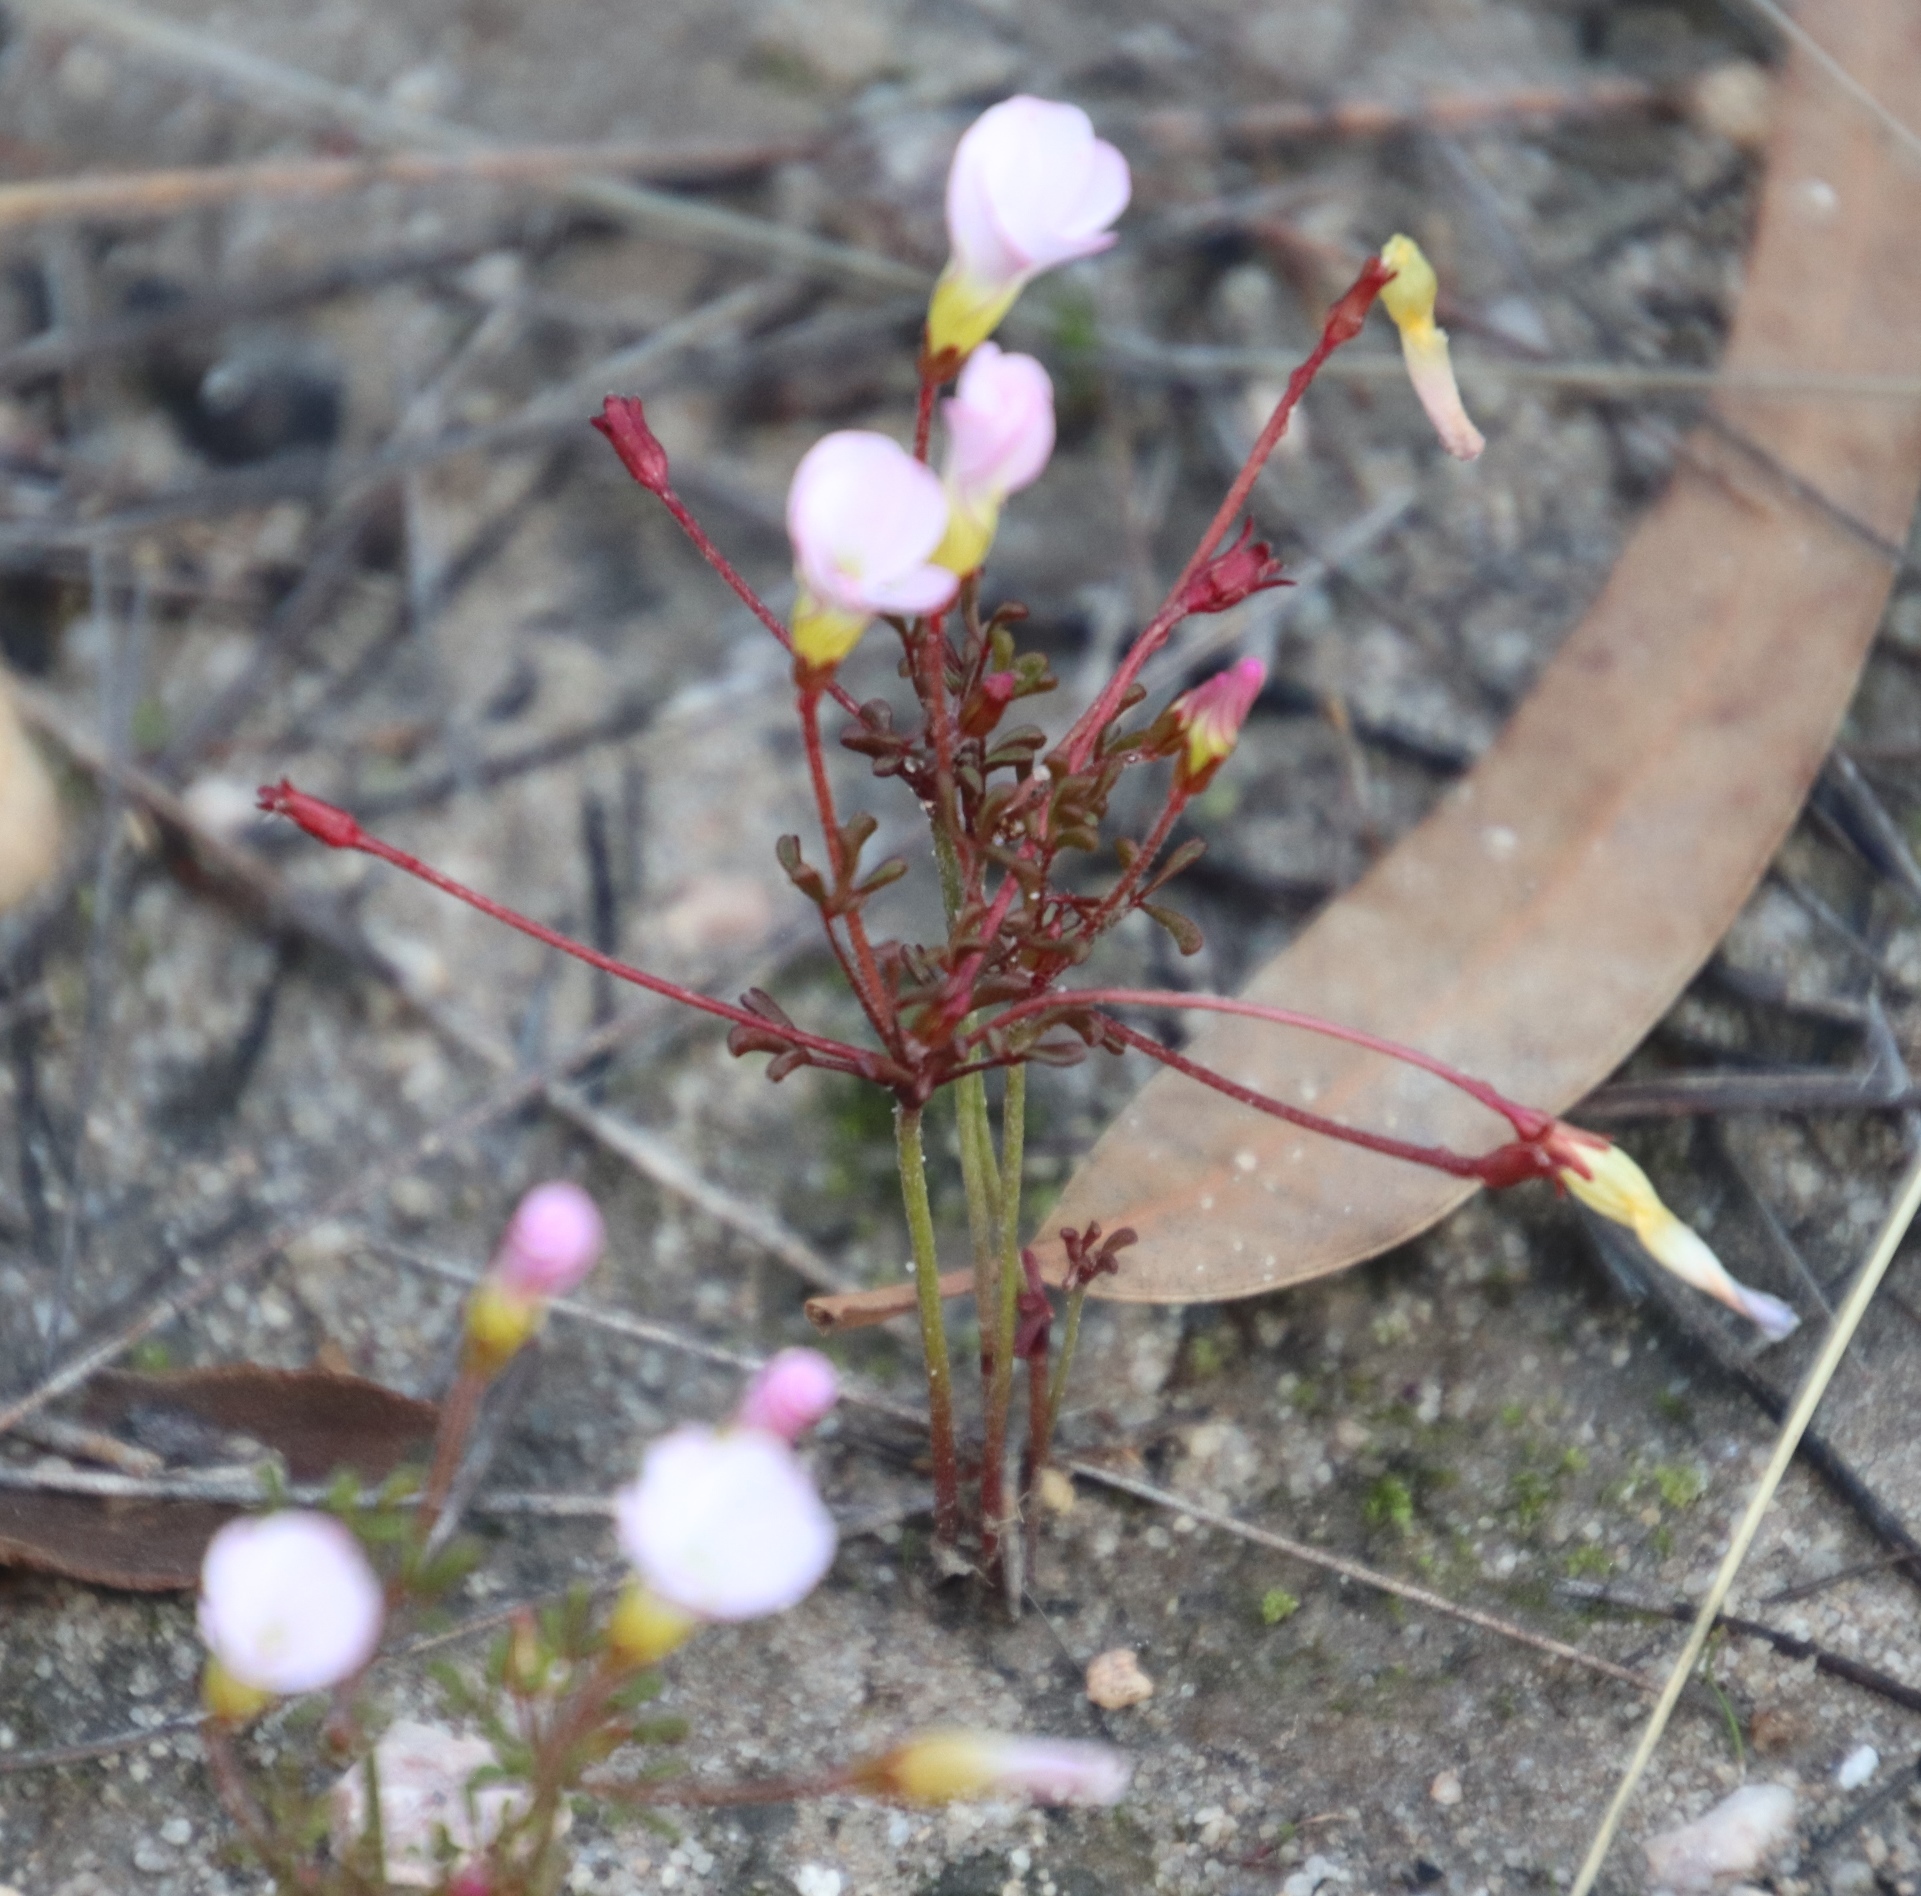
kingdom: Plantae
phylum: Tracheophyta
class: Magnoliopsida
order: Oxalidales
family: Oxalidaceae
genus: Oxalis
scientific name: Oxalis recticaulis
